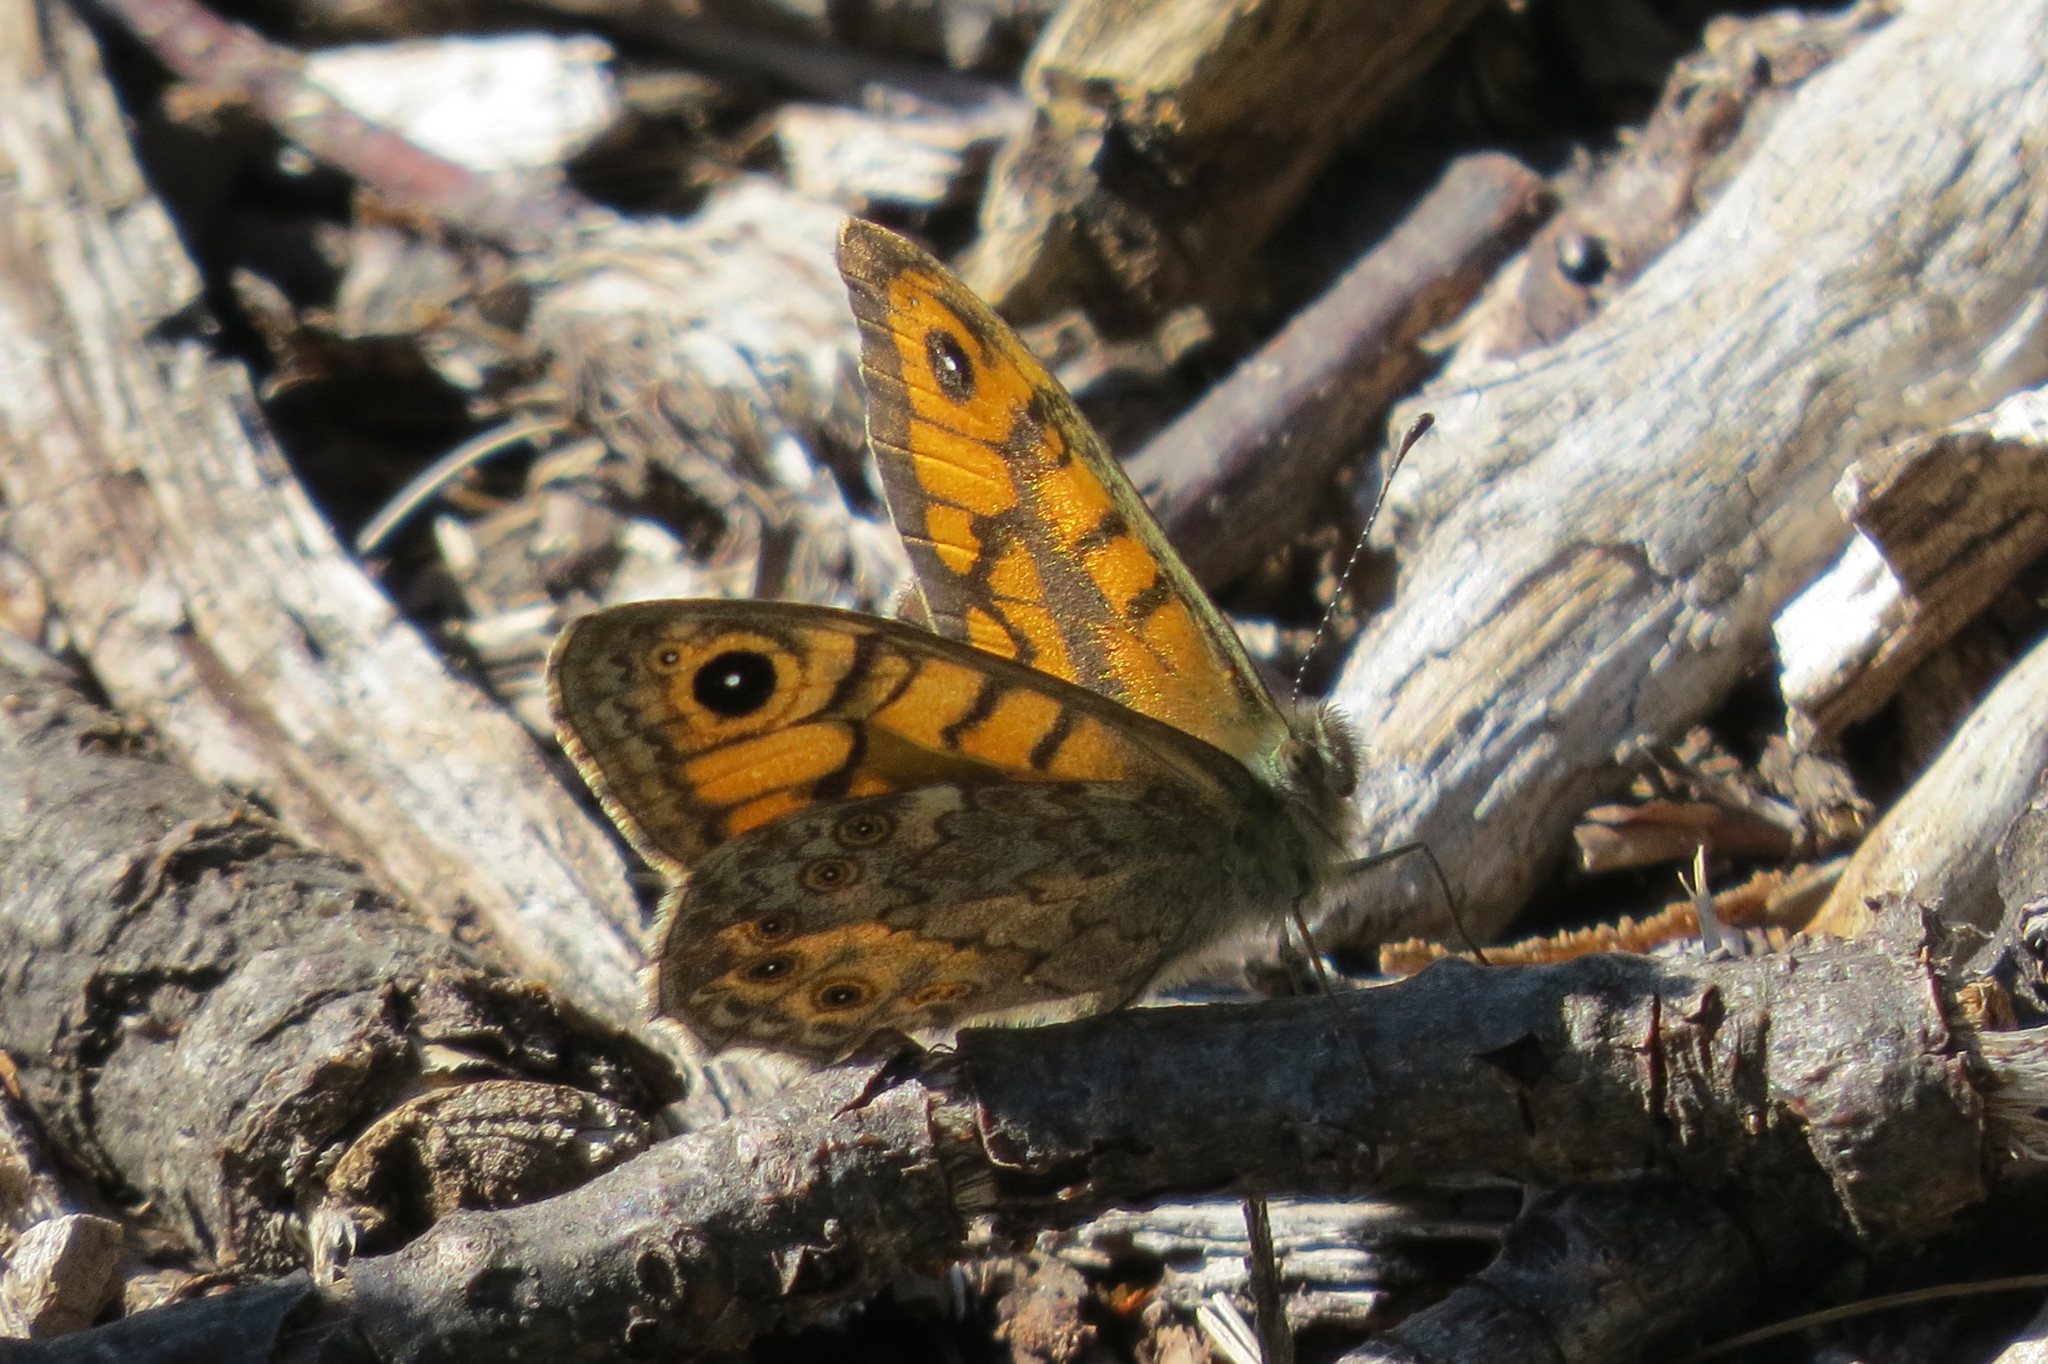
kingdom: Animalia
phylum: Arthropoda
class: Insecta
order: Lepidoptera
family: Nymphalidae
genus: Pararge
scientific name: Pararge Lasiommata megera
